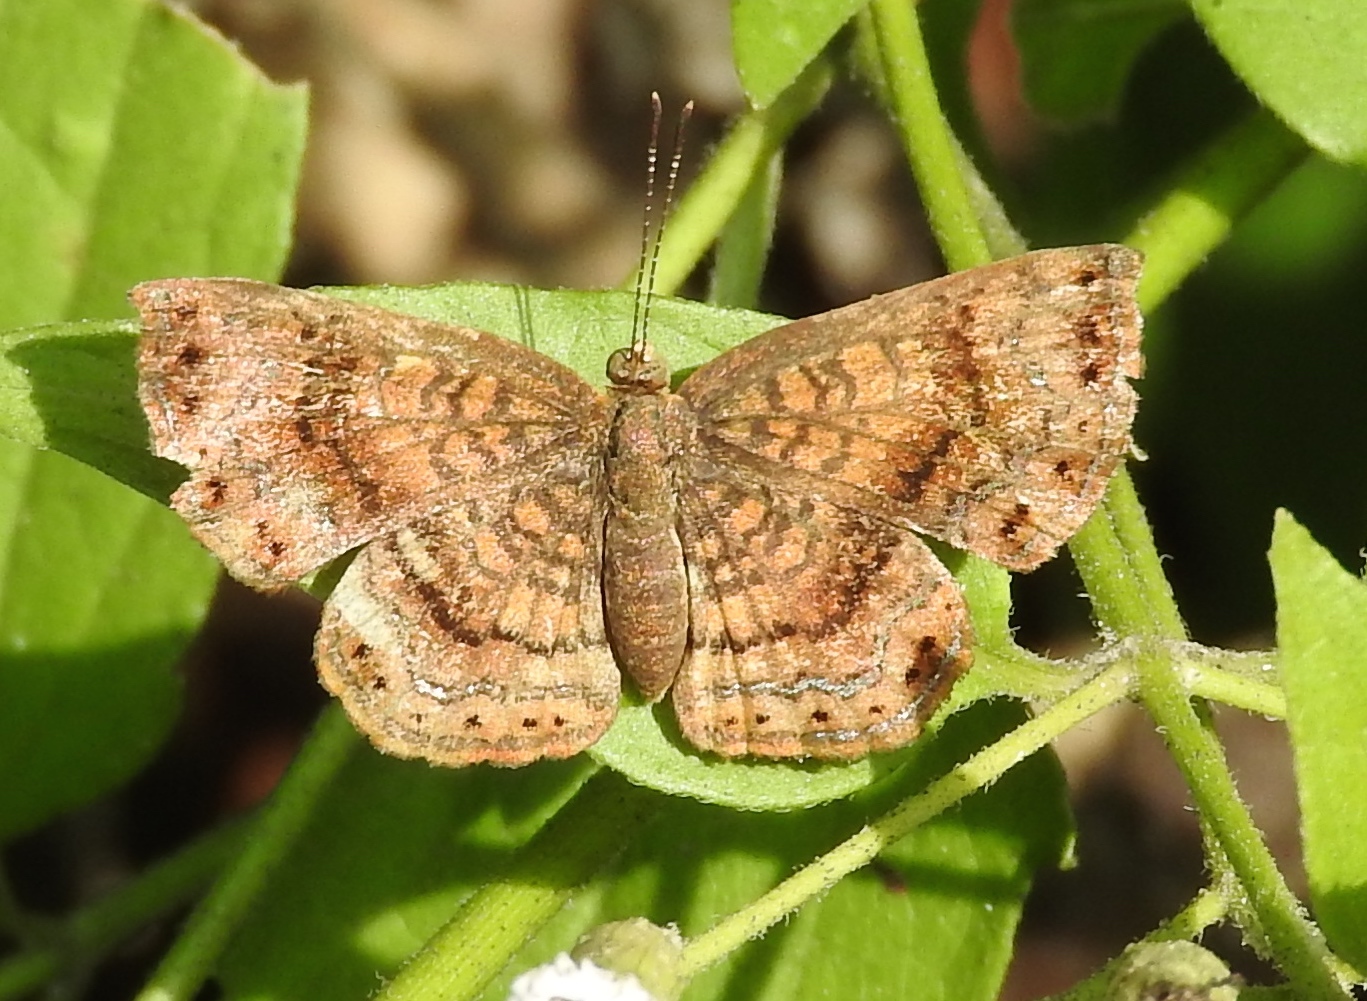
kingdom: Animalia
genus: Calephelis
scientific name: Calephelis
